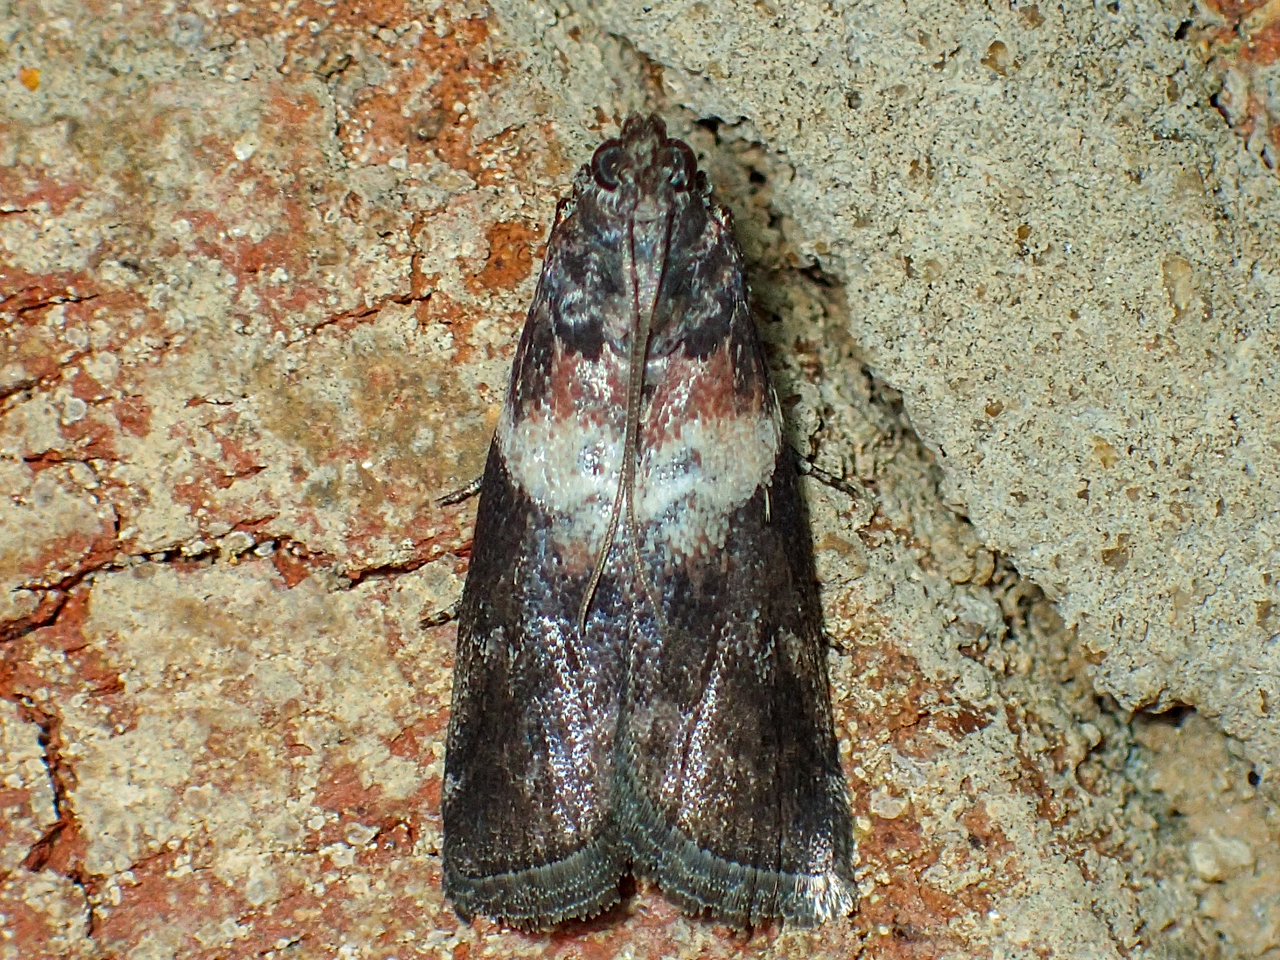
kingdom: Animalia
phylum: Arthropoda
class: Insecta
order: Lepidoptera
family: Pyralidae
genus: Salebriaria
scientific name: Salebriaria rufimaculatella
